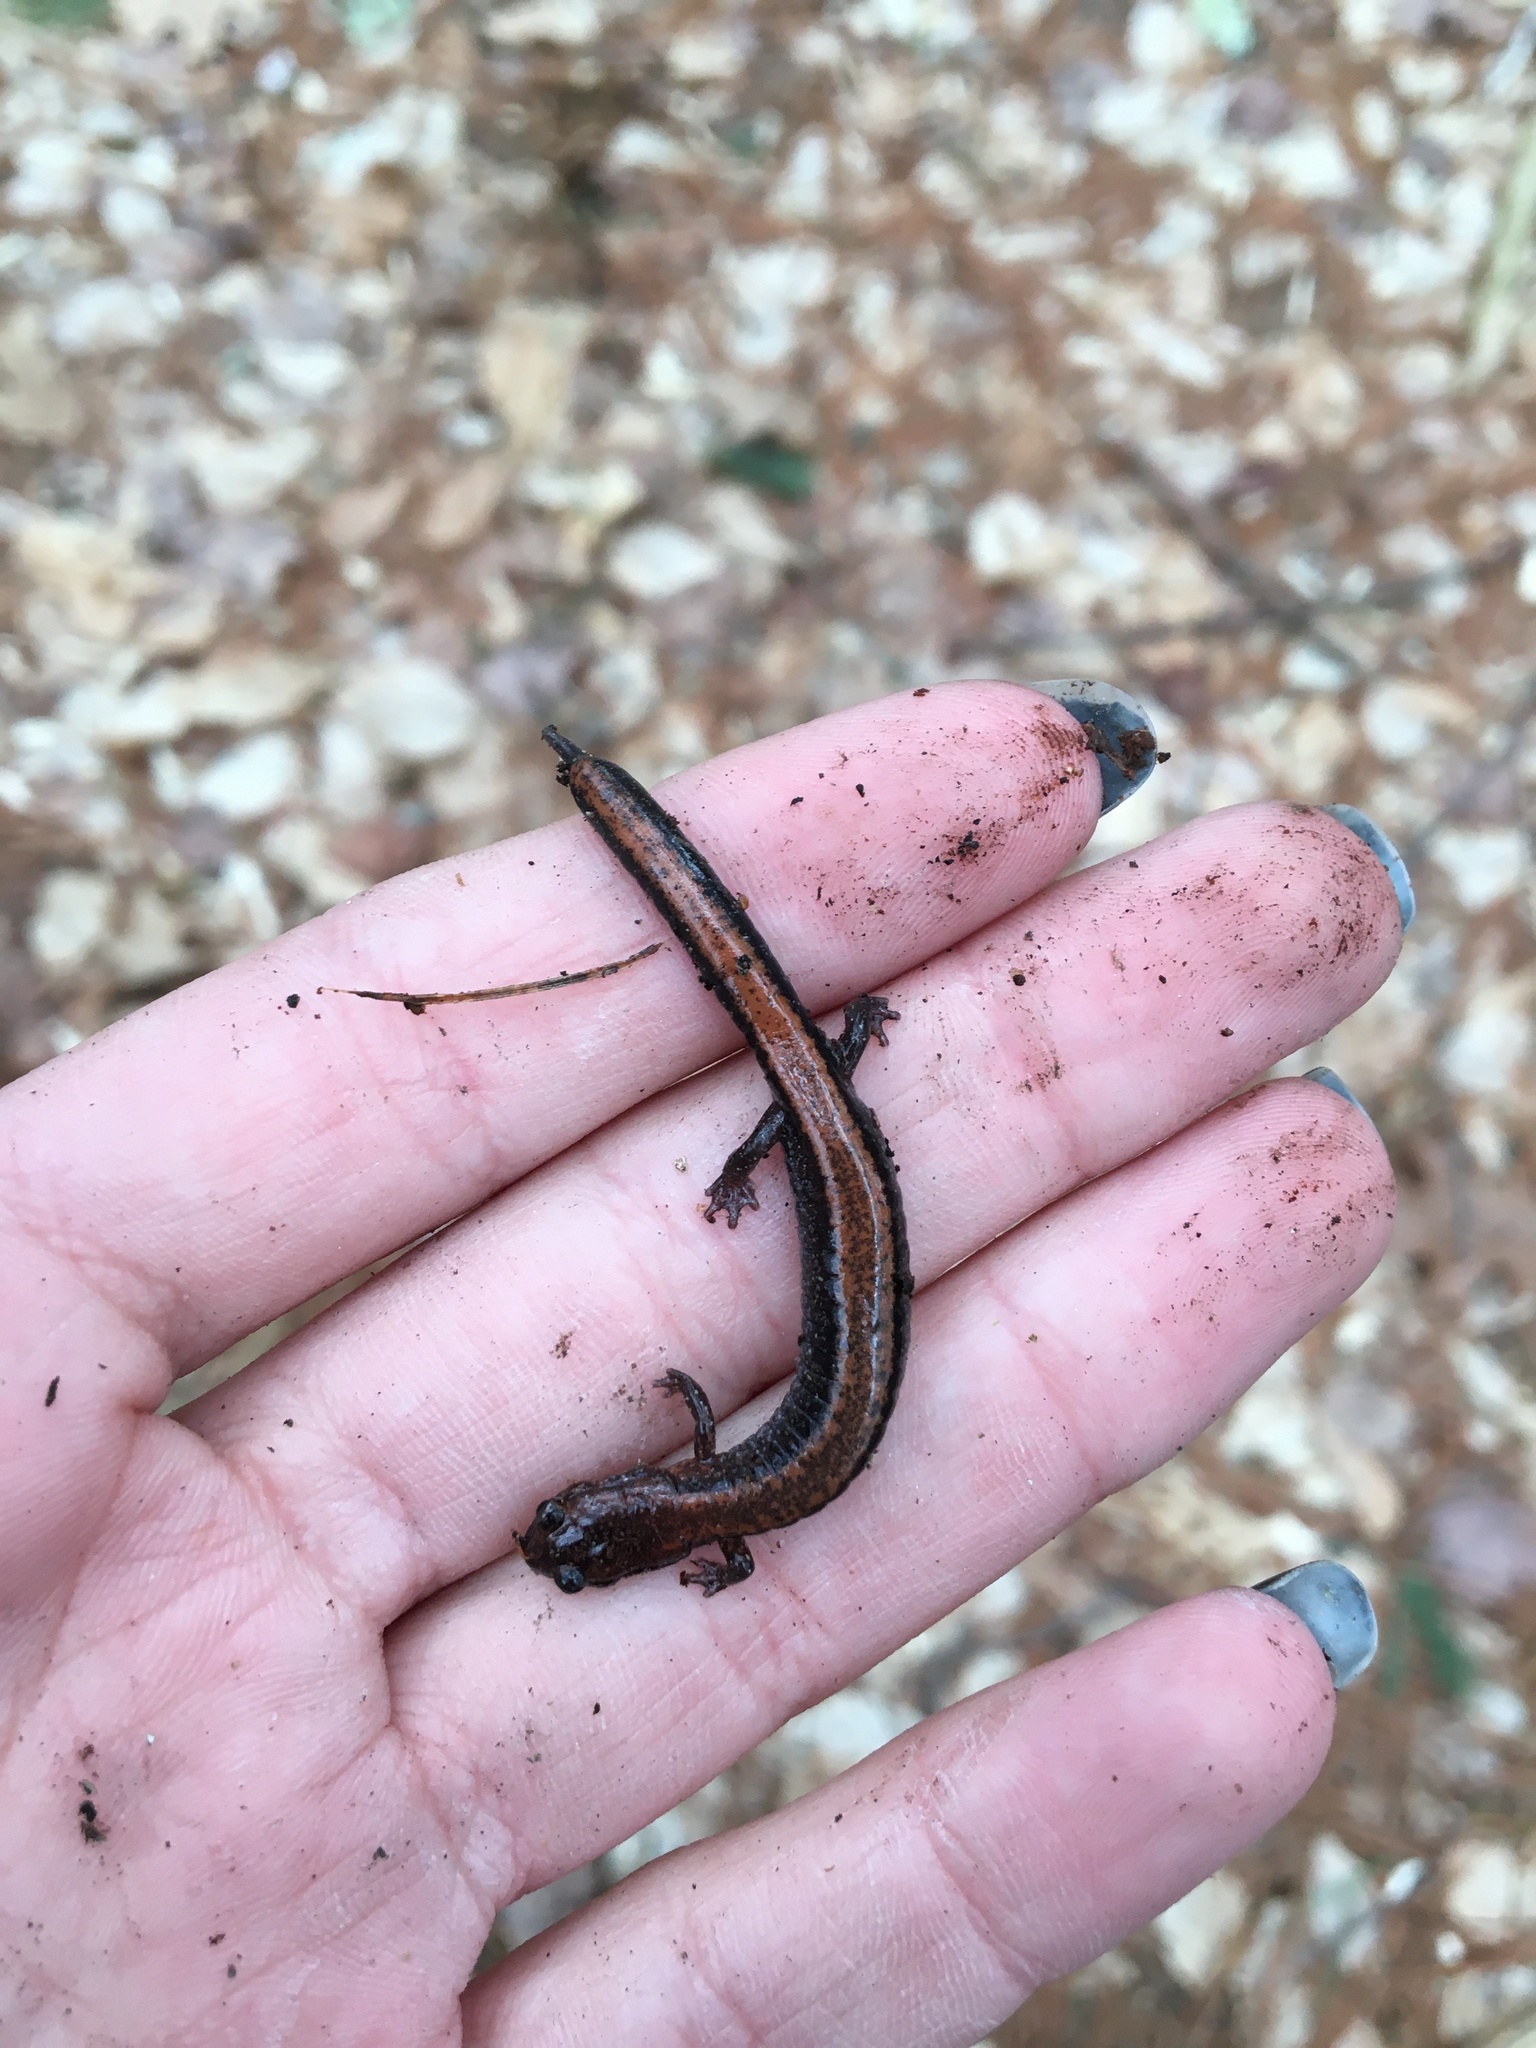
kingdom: Animalia
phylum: Chordata
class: Amphibia
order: Caudata
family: Plethodontidae
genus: Plethodon
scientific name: Plethodon cinereus
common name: Redback salamander
